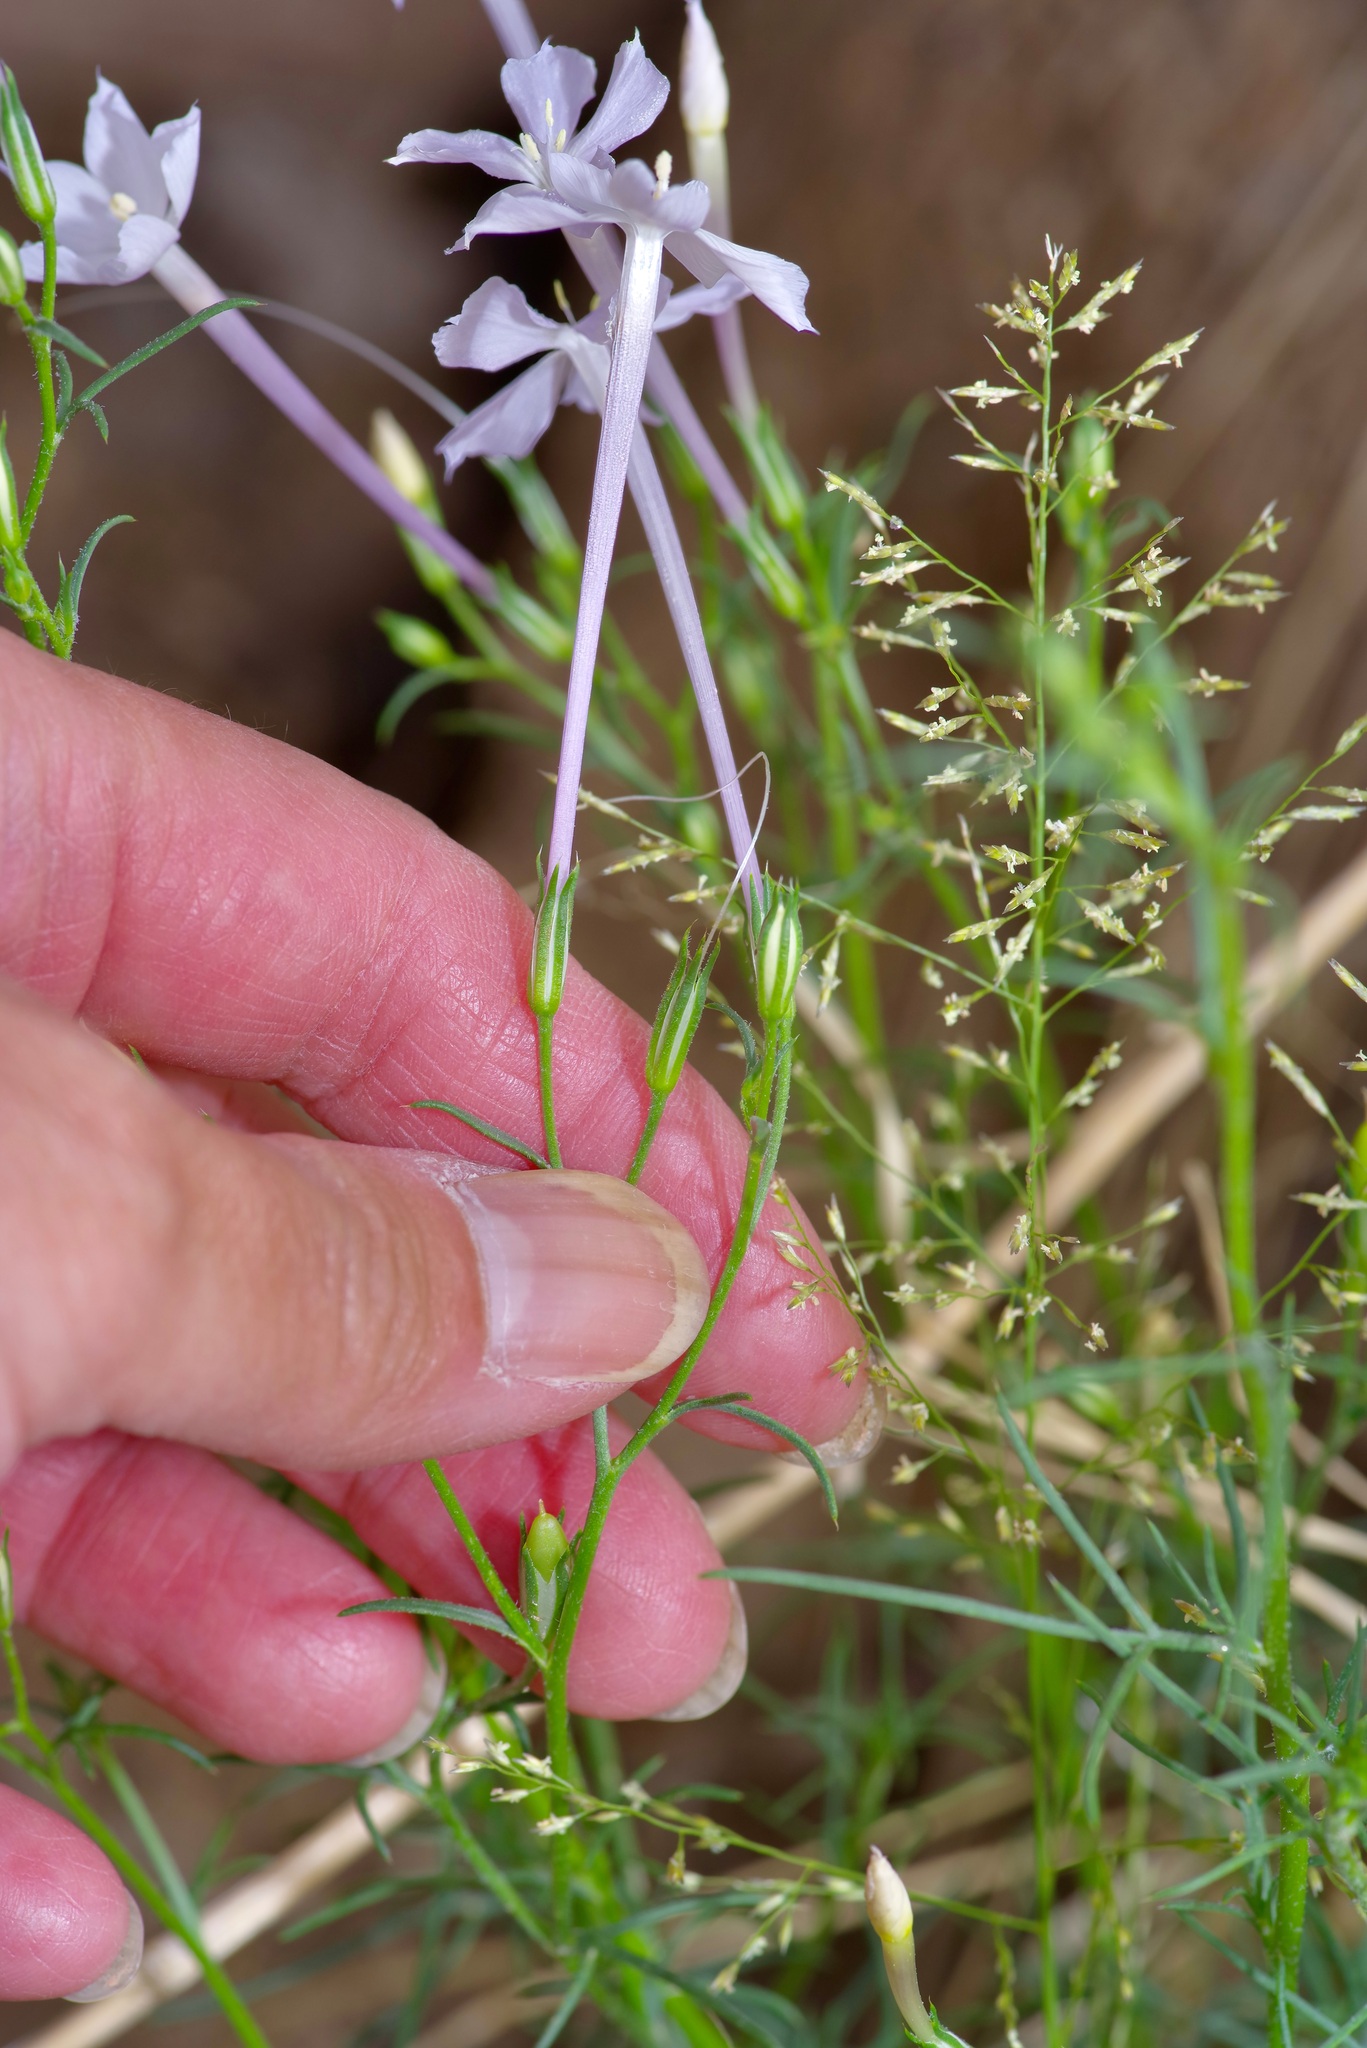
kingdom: Plantae
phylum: Tracheophyta
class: Magnoliopsida
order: Ericales
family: Polemoniaceae
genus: Ipomopsis
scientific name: Ipomopsis longiflora
